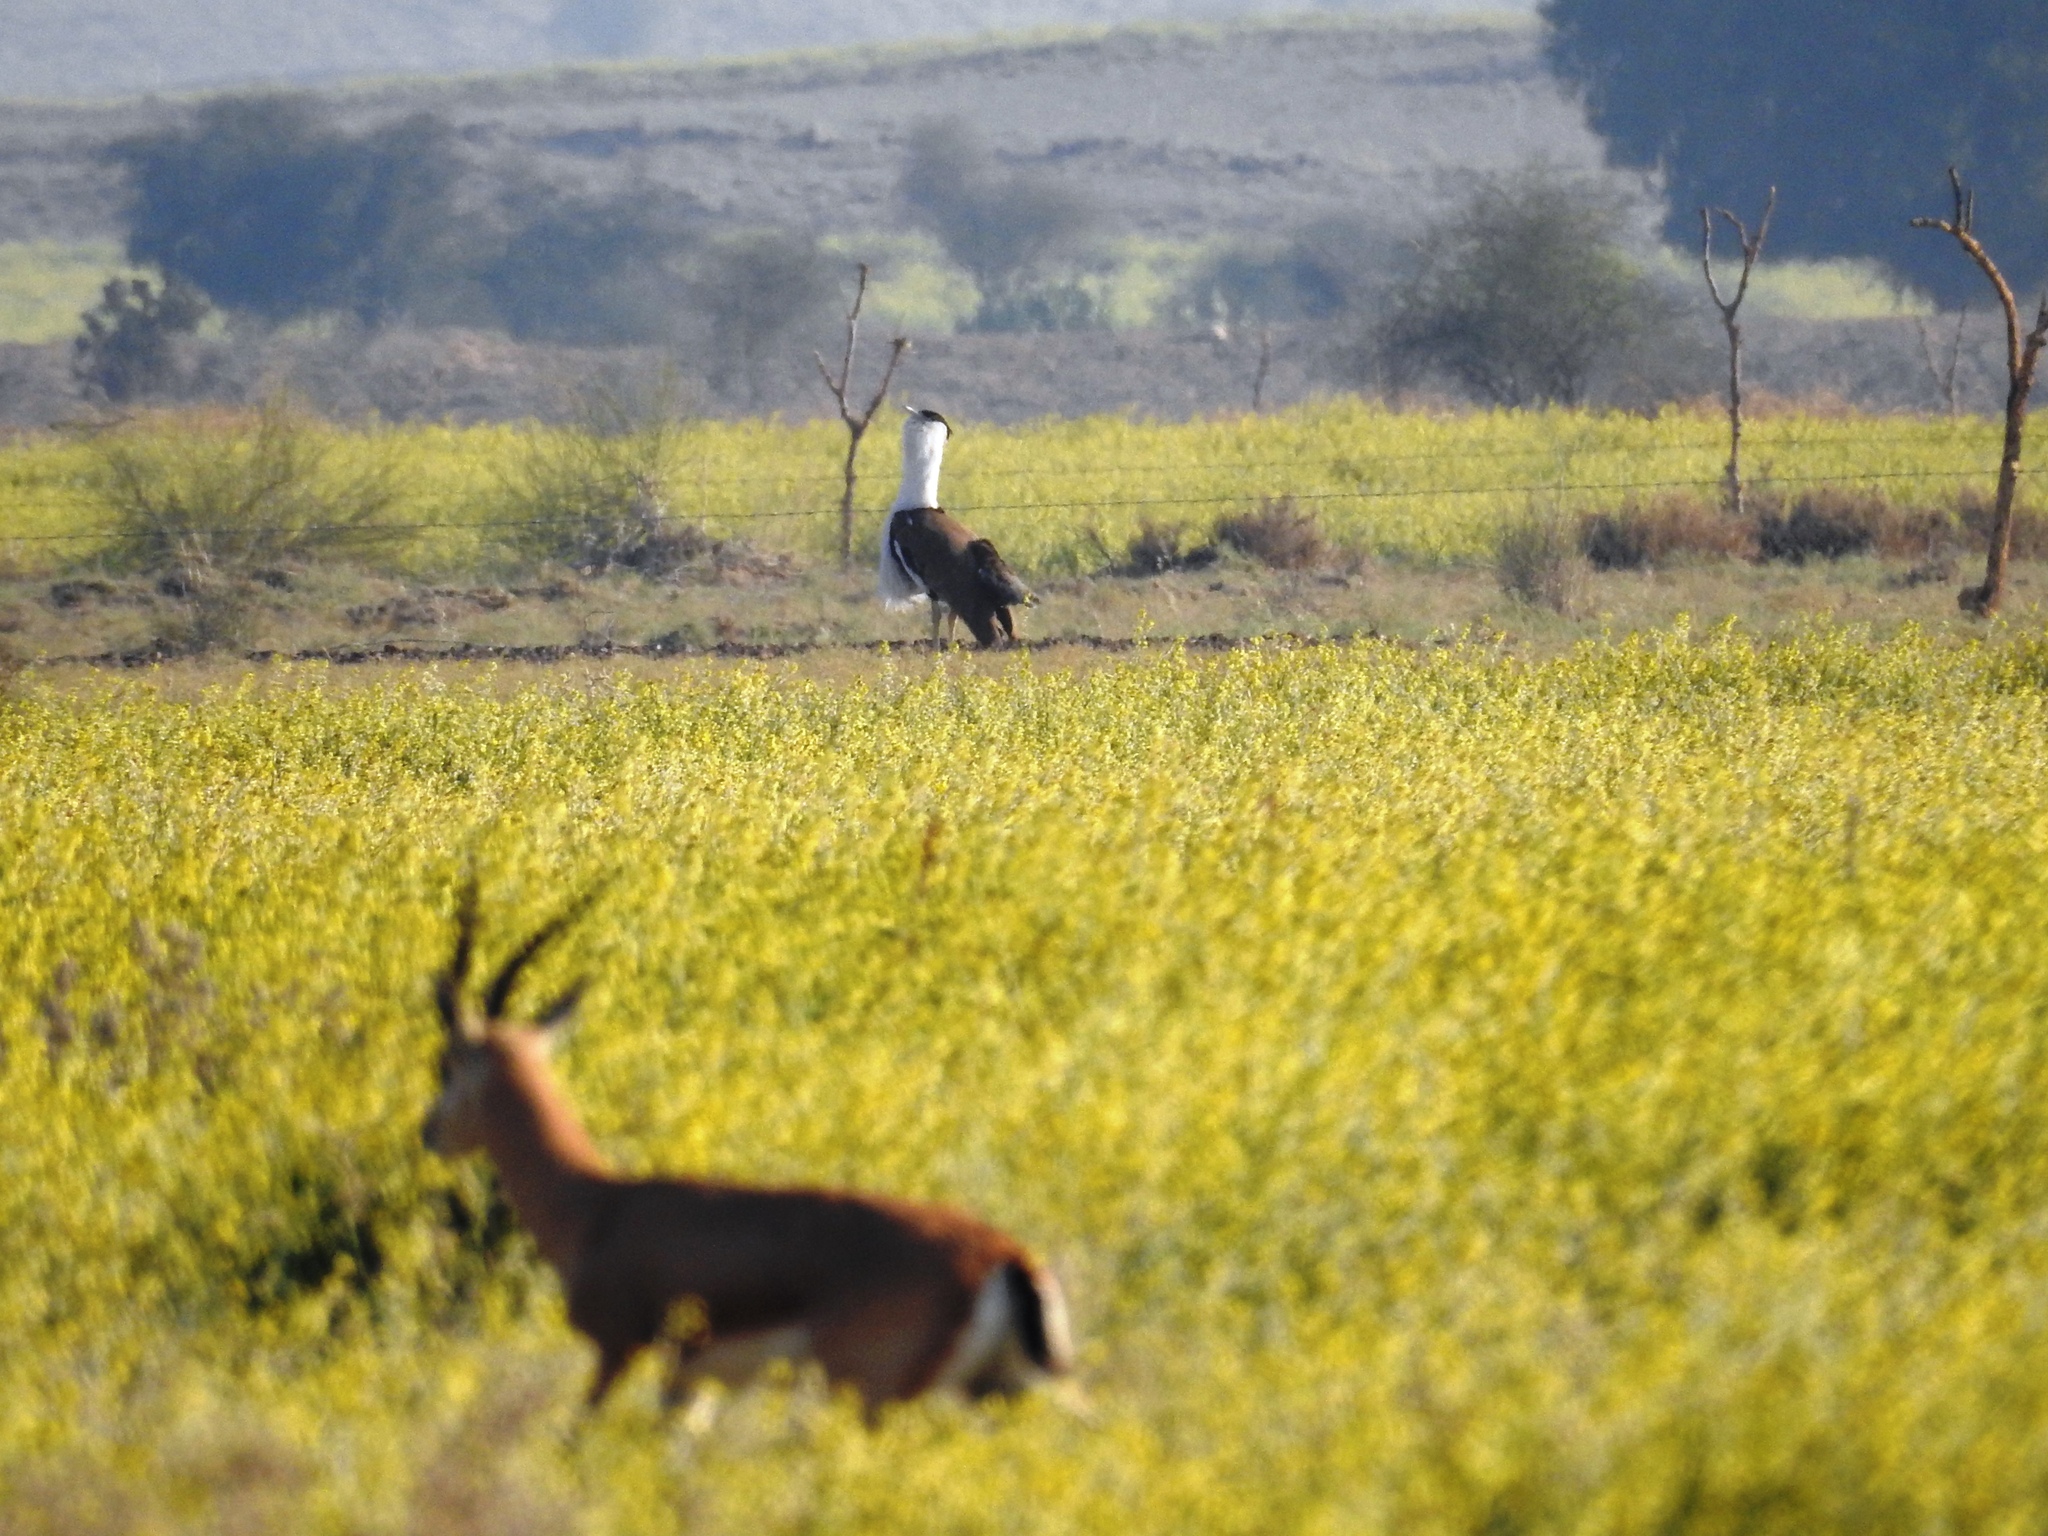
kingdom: Animalia
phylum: Chordata
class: Mammalia
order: Artiodactyla
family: Bovidae
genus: Gazella
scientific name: Gazella bennettii
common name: Indian gazelle
